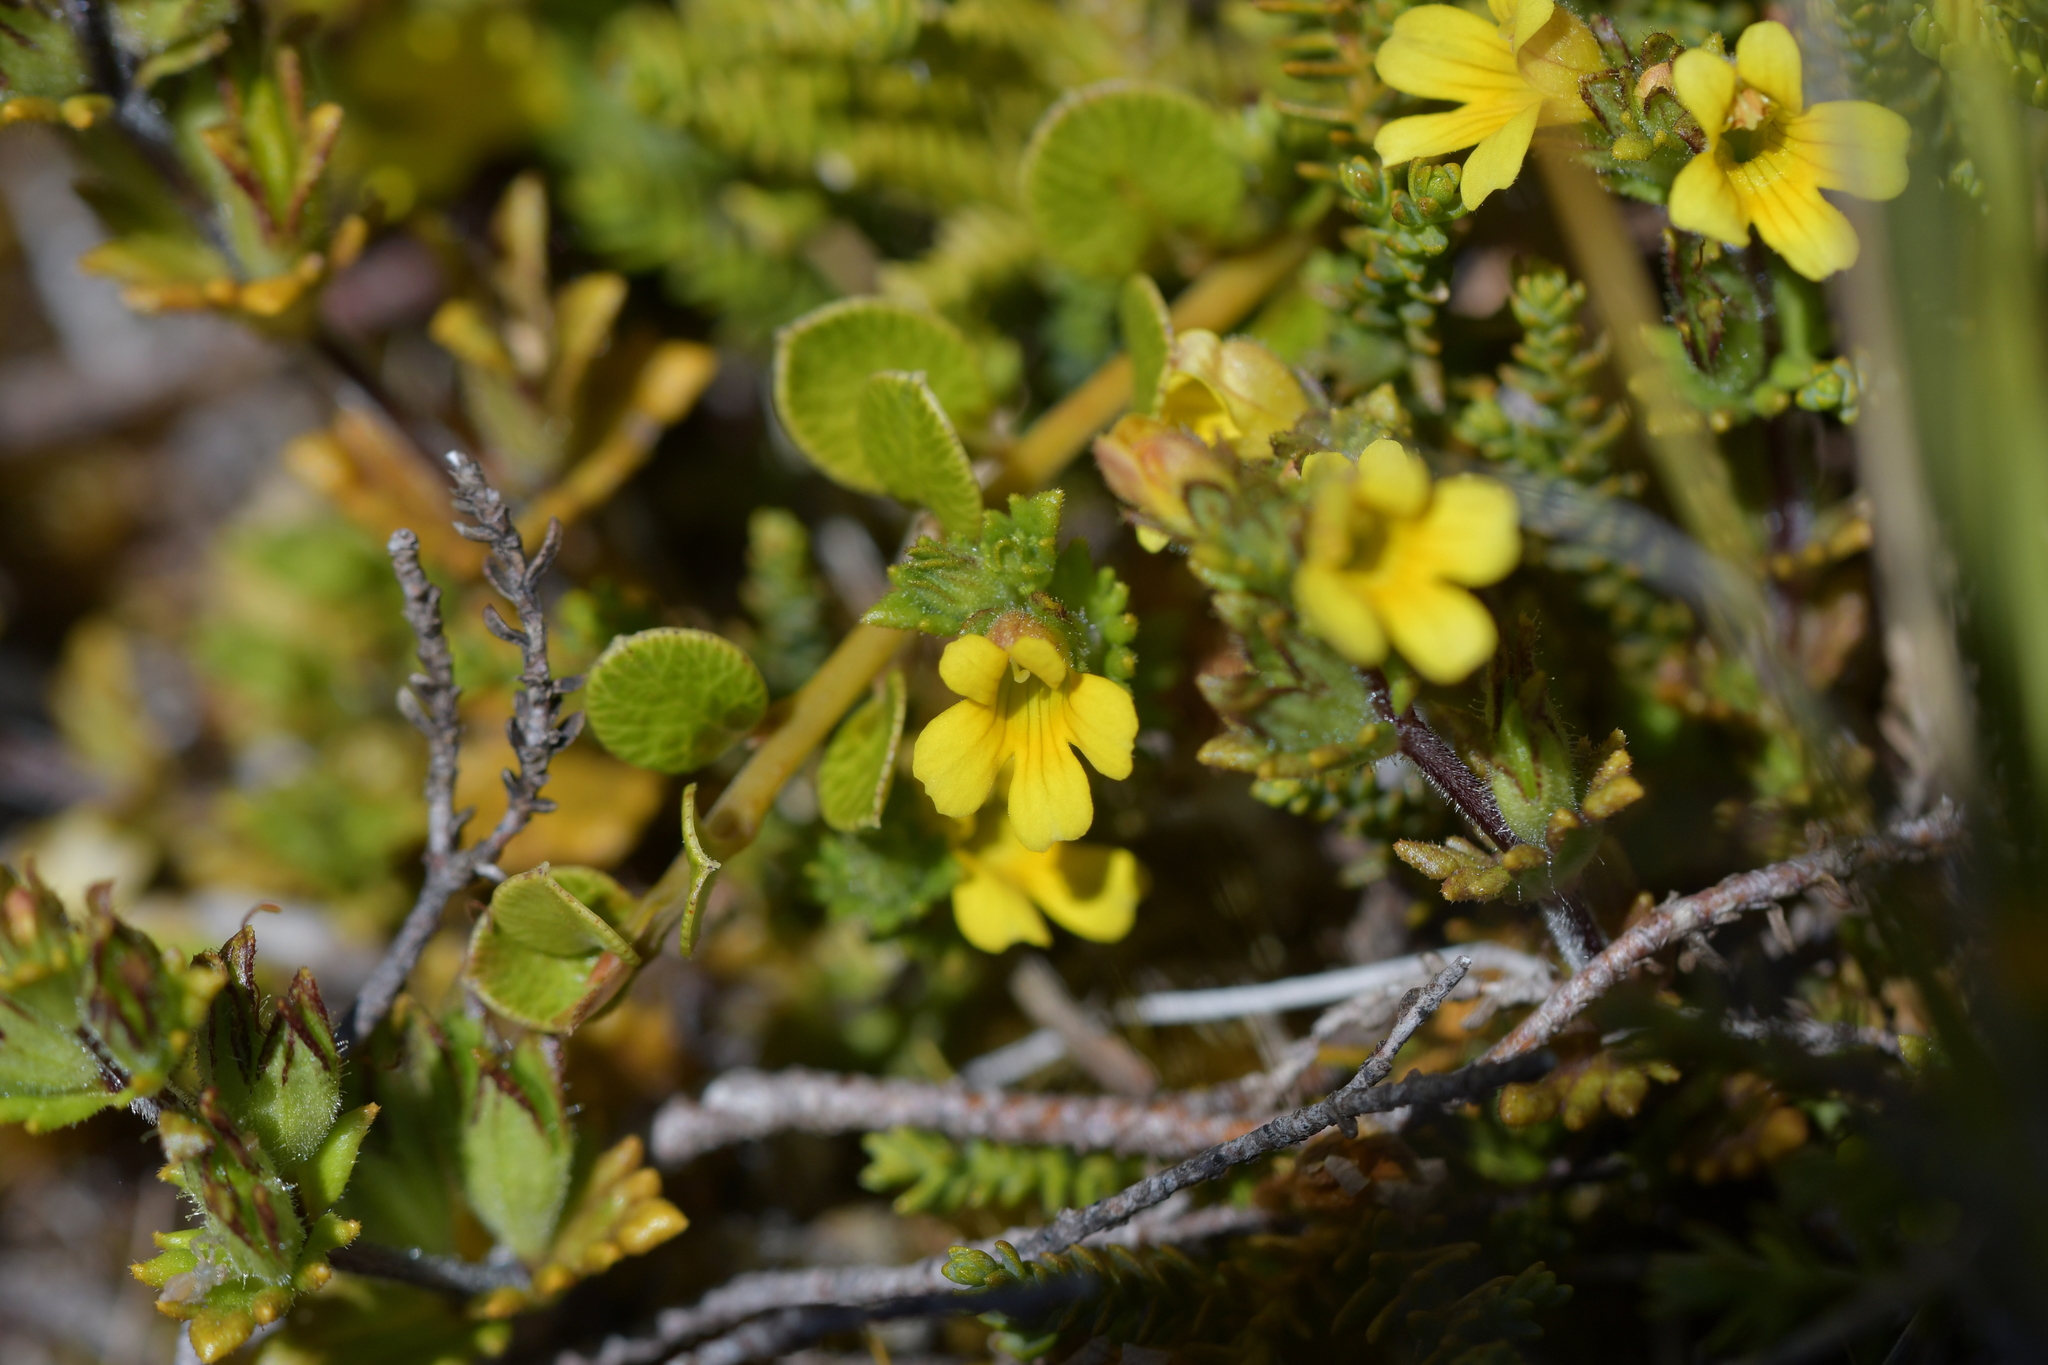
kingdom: Plantae
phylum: Tracheophyta
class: Magnoliopsida
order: Lamiales
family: Orobanchaceae
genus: Euphrasia
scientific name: Euphrasia cockayneana
